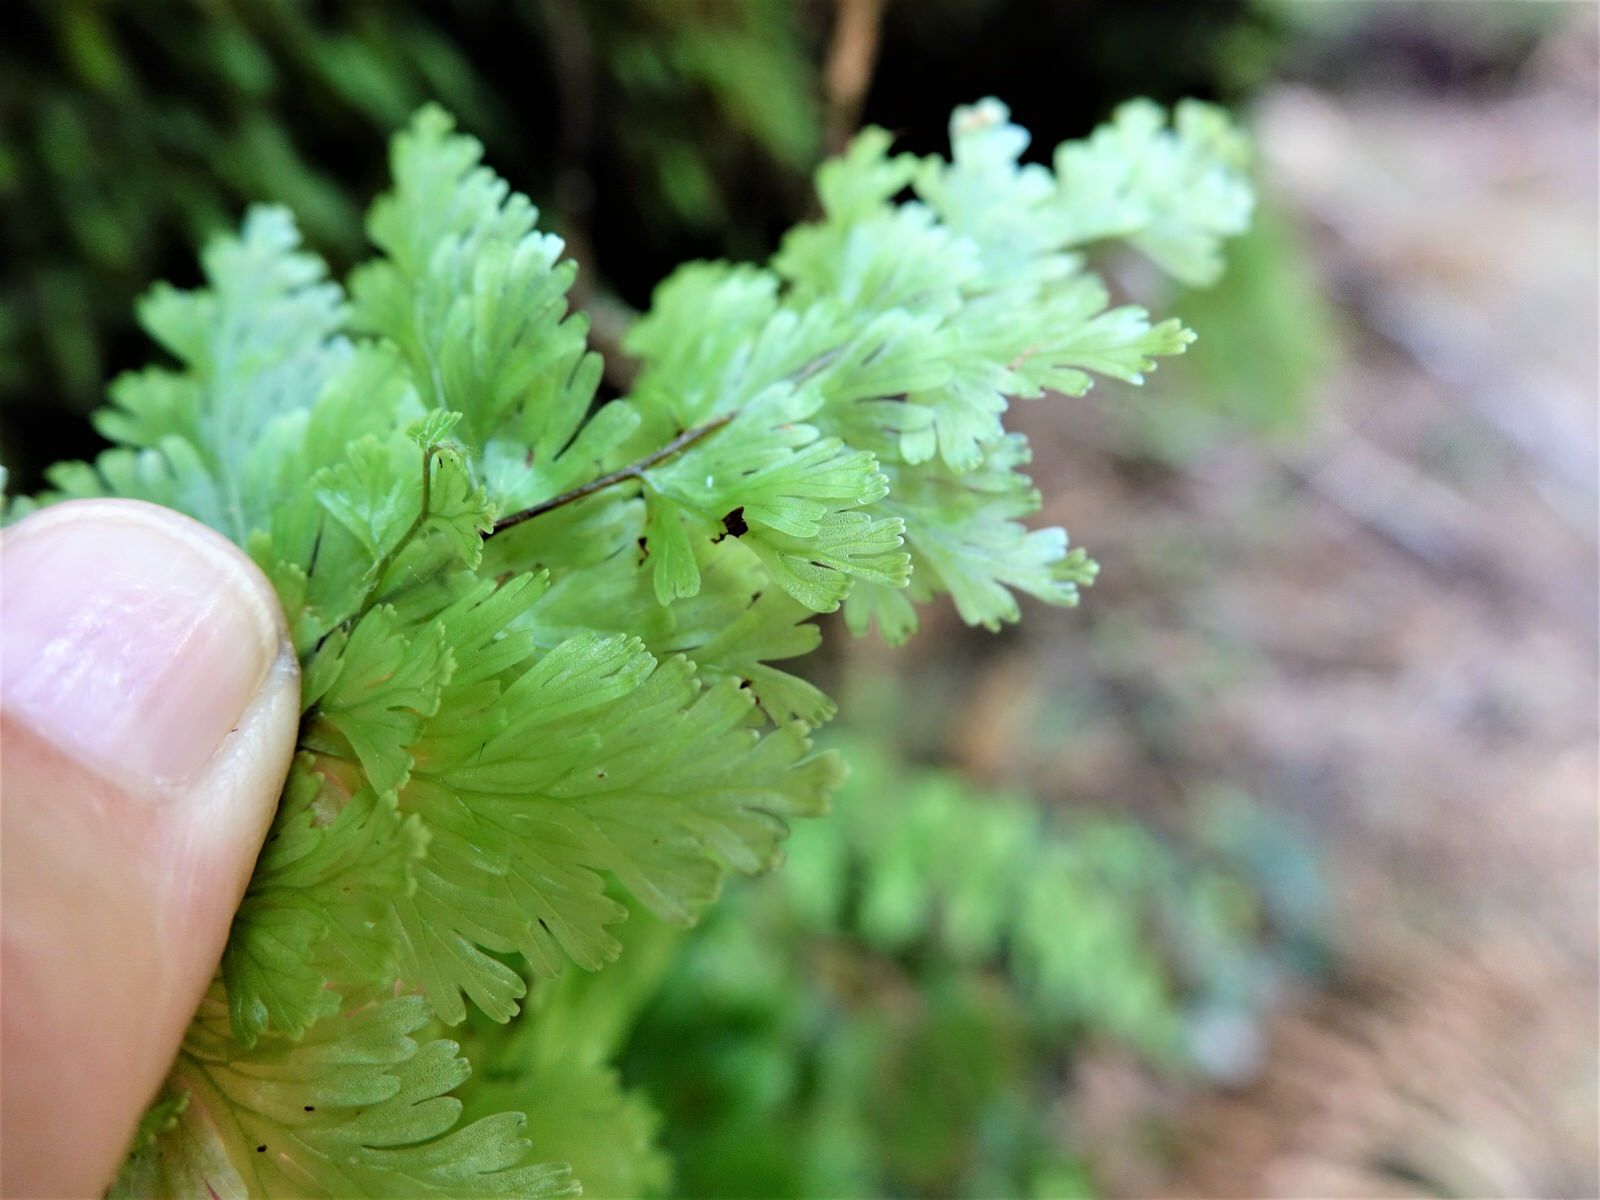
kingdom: Plantae
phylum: Tracheophyta
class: Polypodiopsida
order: Hymenophyllales
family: Hymenophyllaceae
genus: Hymenophyllum
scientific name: Hymenophyllum flabellatum
